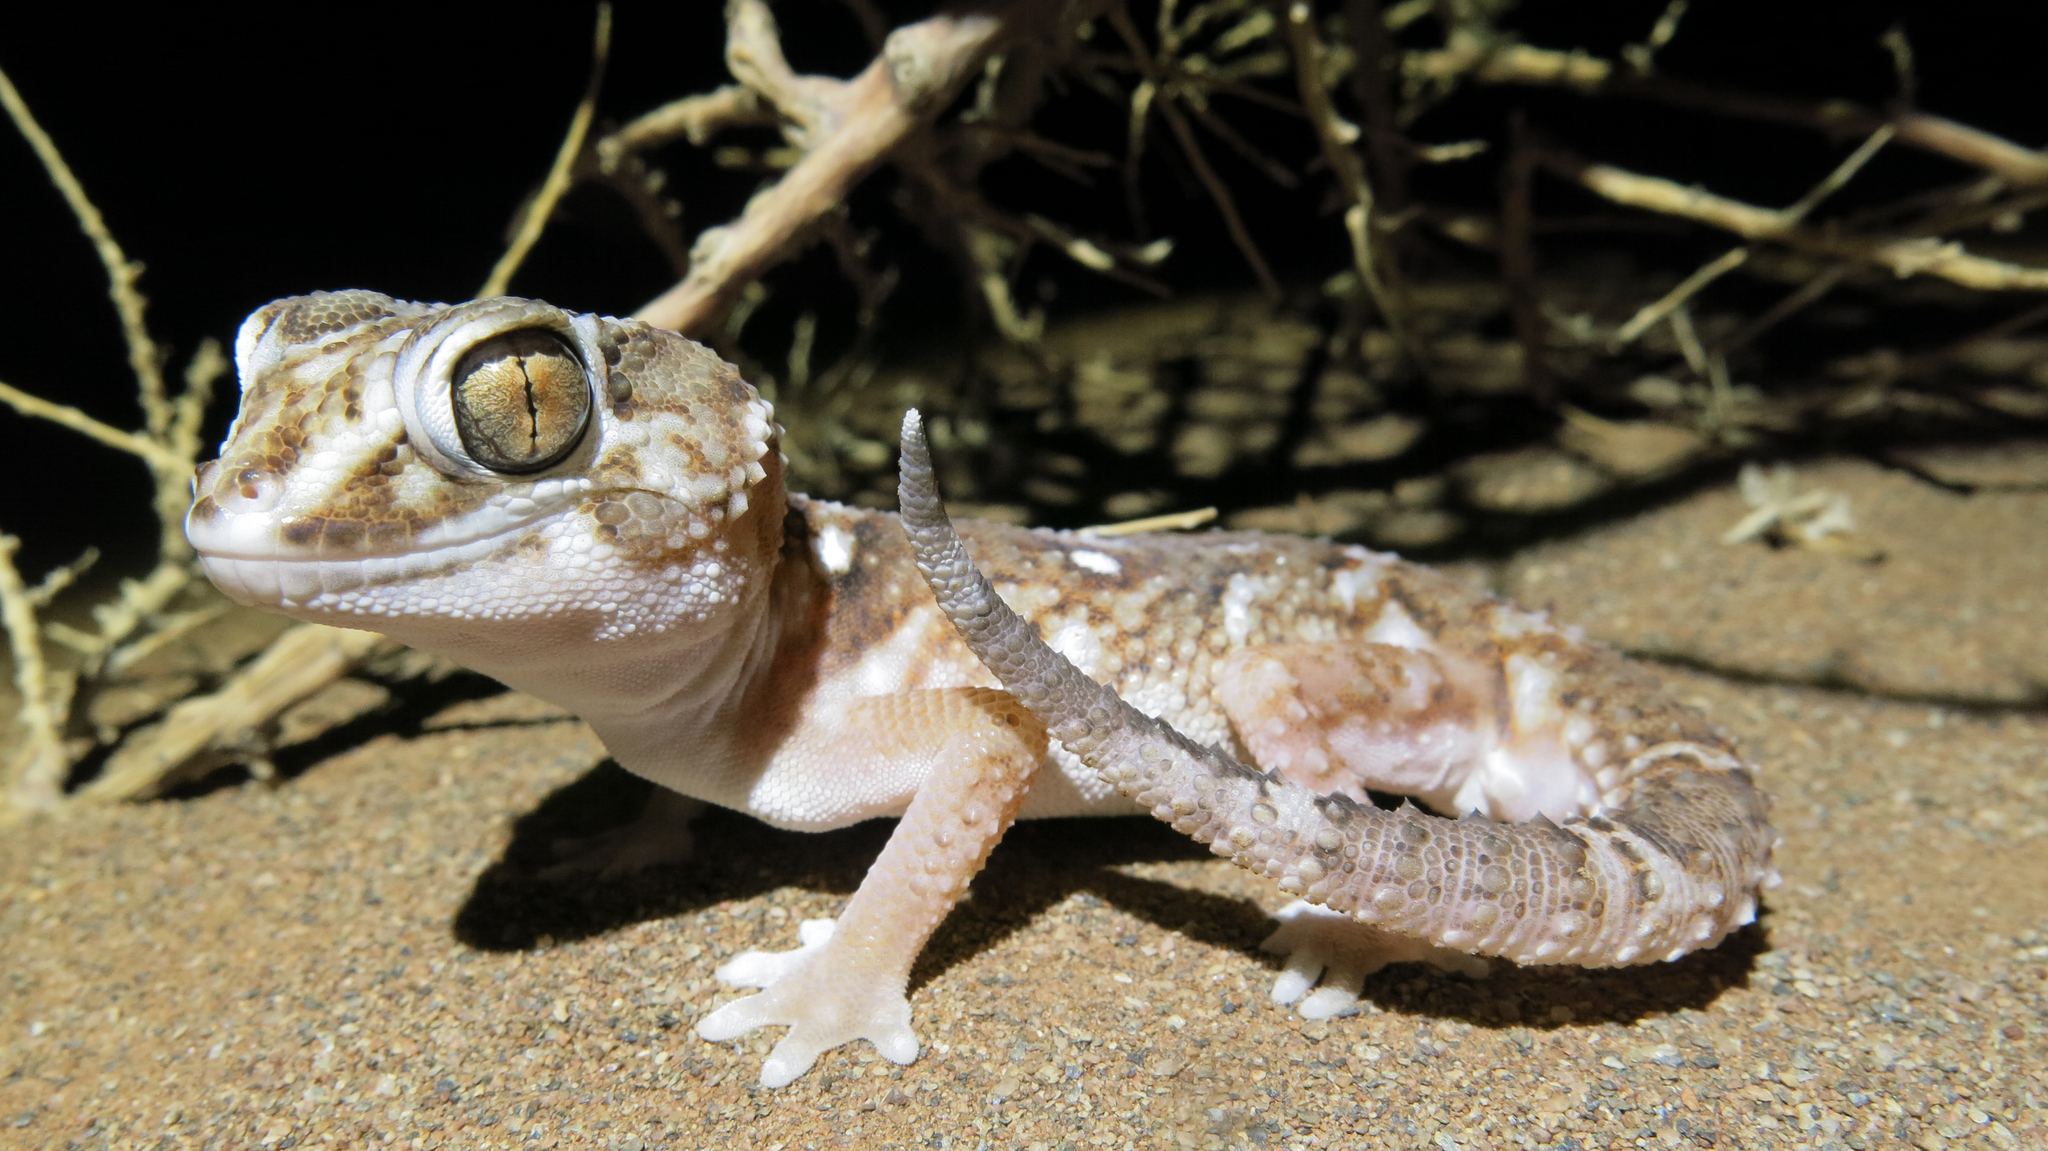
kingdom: Animalia
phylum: Chordata
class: Squamata
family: Gekkonidae
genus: Chondrodactylus
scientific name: Chondrodactylus angulifer
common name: Common giant ground gecko
